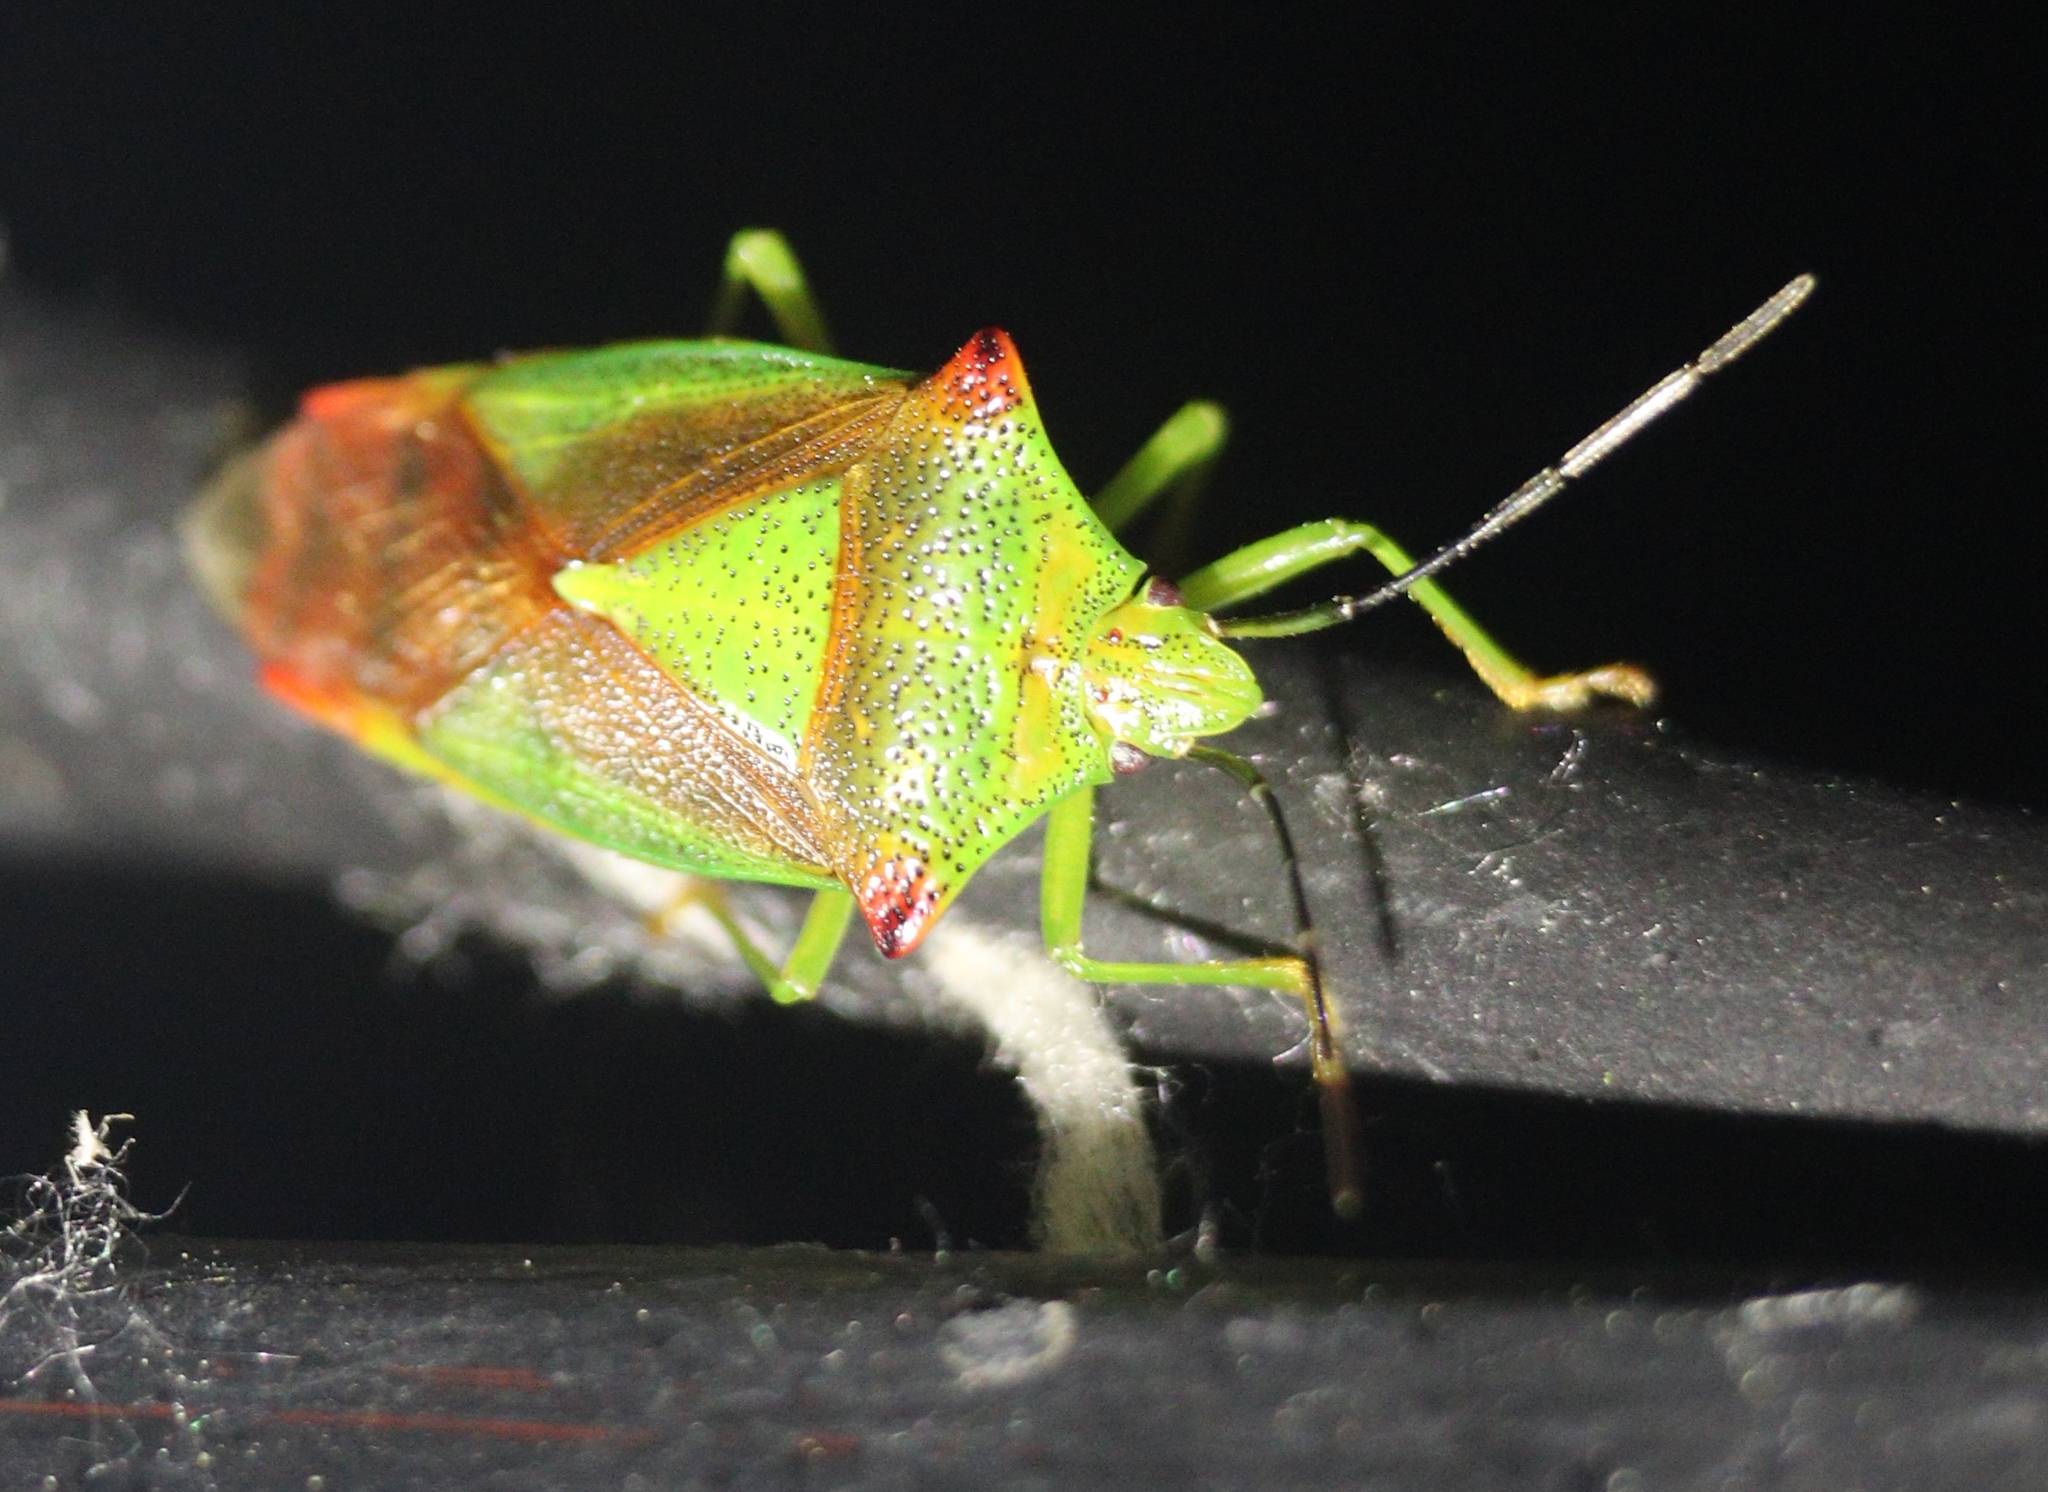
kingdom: Animalia
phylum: Arthropoda
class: Insecta
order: Hemiptera
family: Acanthosomatidae
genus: Acanthosoma
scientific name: Acanthosoma haemorrhoidale
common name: Hawthorn shieldbug
